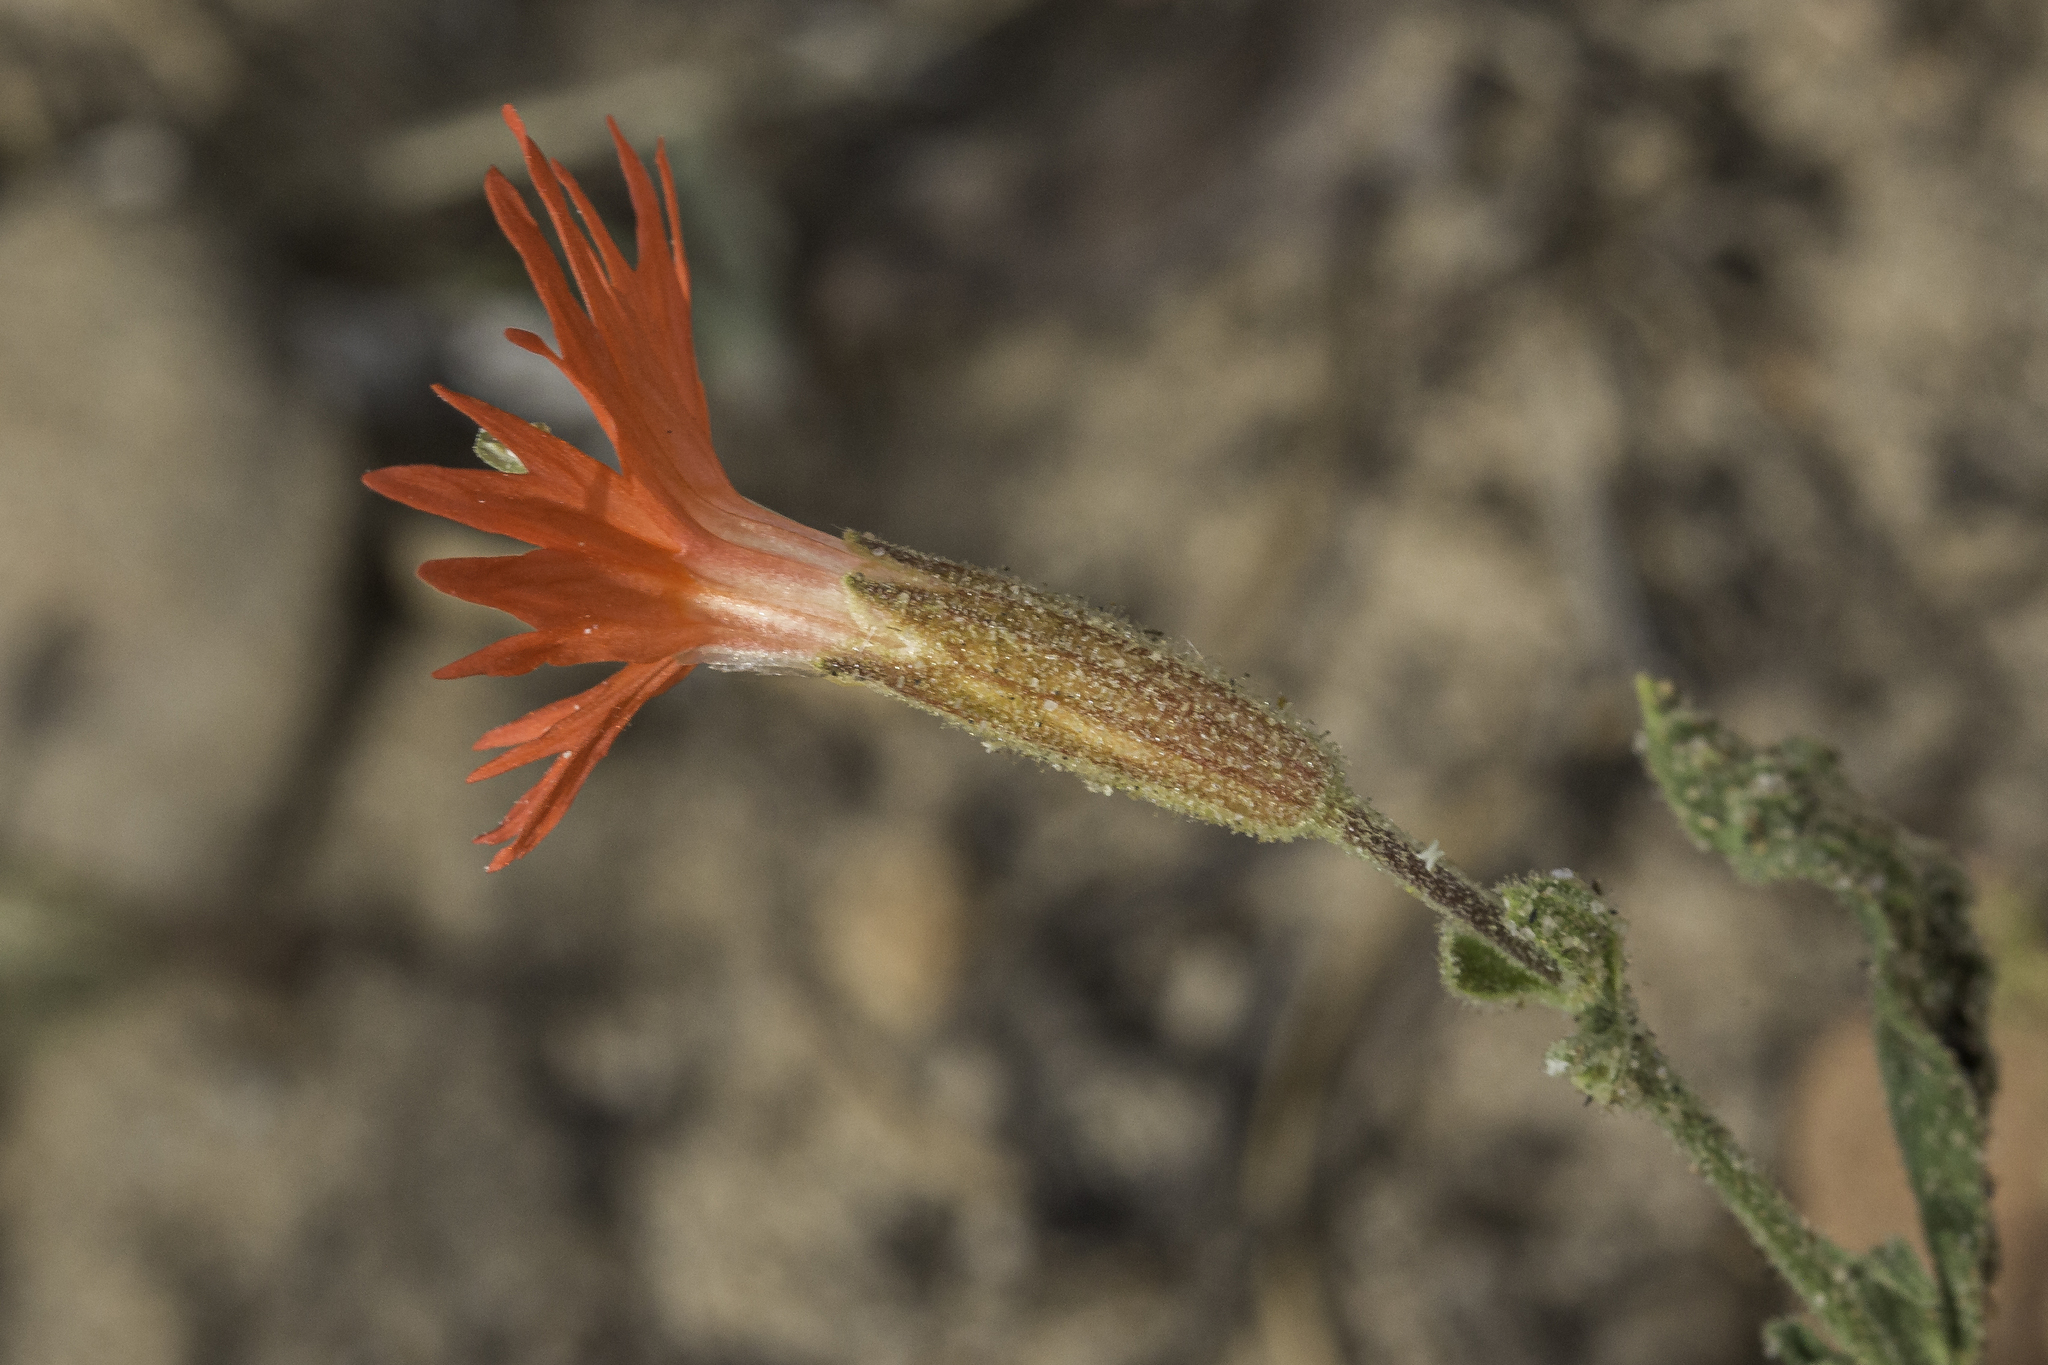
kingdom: Plantae
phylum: Tracheophyta
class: Magnoliopsida
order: Caryophyllales
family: Caryophyllaceae
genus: Silene
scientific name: Silene laciniata
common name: Indian-pink
